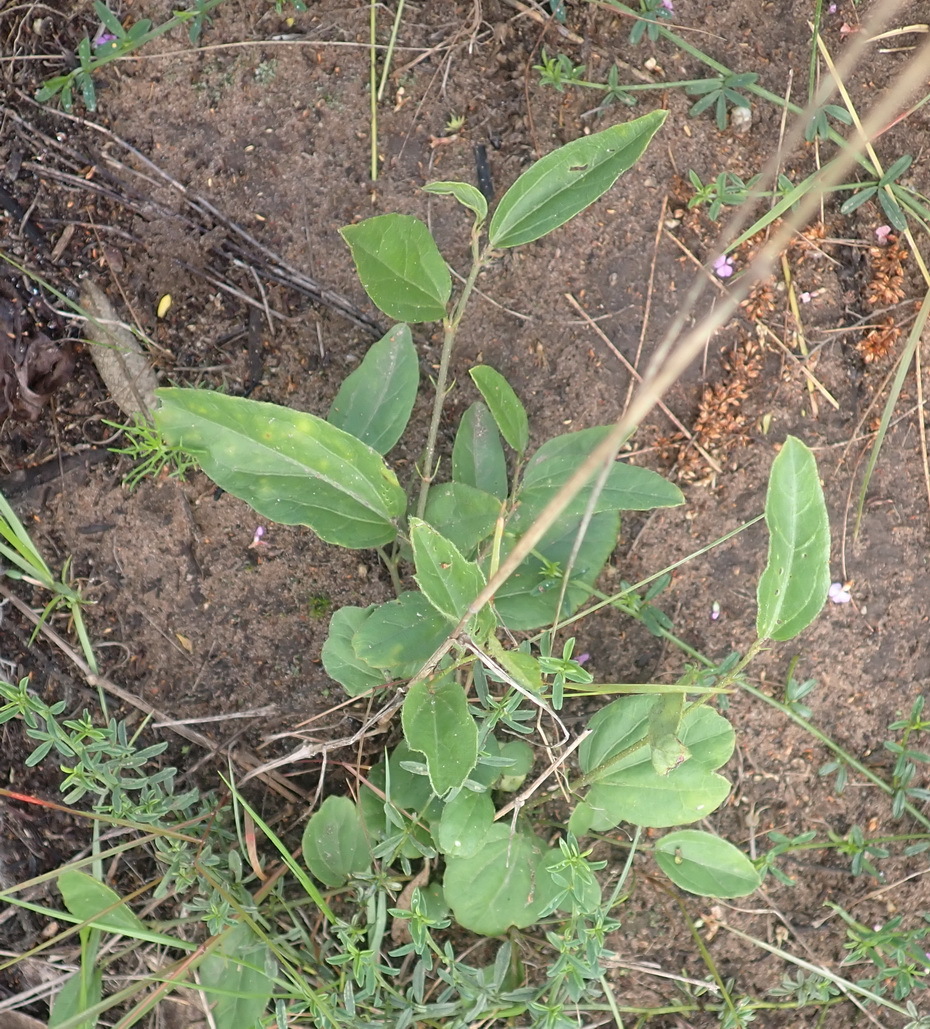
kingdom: Plantae
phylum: Tracheophyta
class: Magnoliopsida
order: Malvales
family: Malvaceae
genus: Hibiscus
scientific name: Hibiscus aethiopicus
